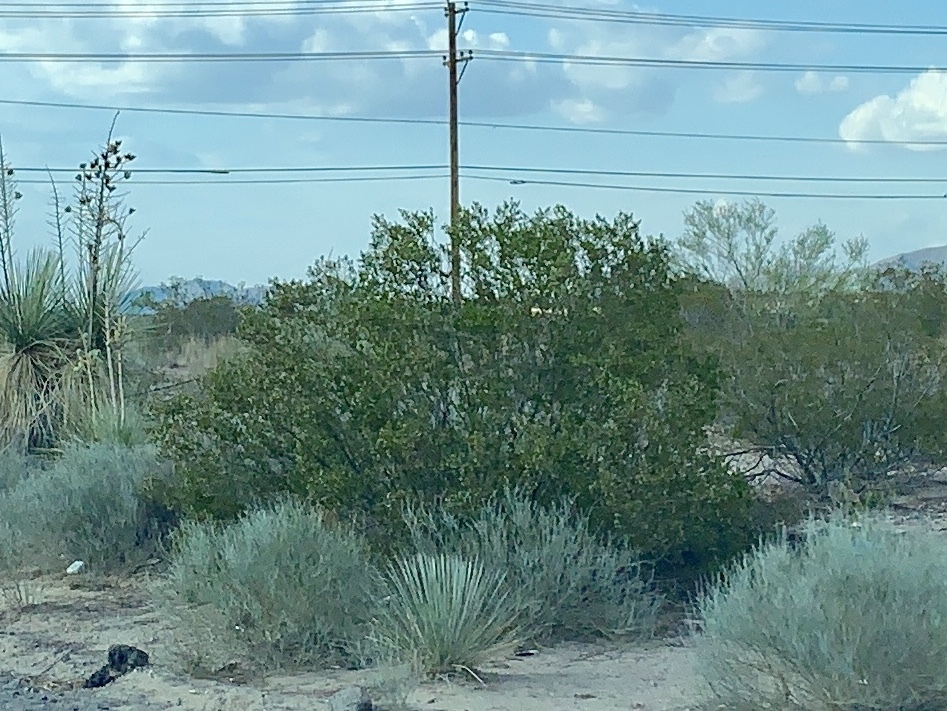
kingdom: Plantae
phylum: Tracheophyta
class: Magnoliopsida
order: Zygophyllales
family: Zygophyllaceae
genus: Larrea
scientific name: Larrea tridentata
